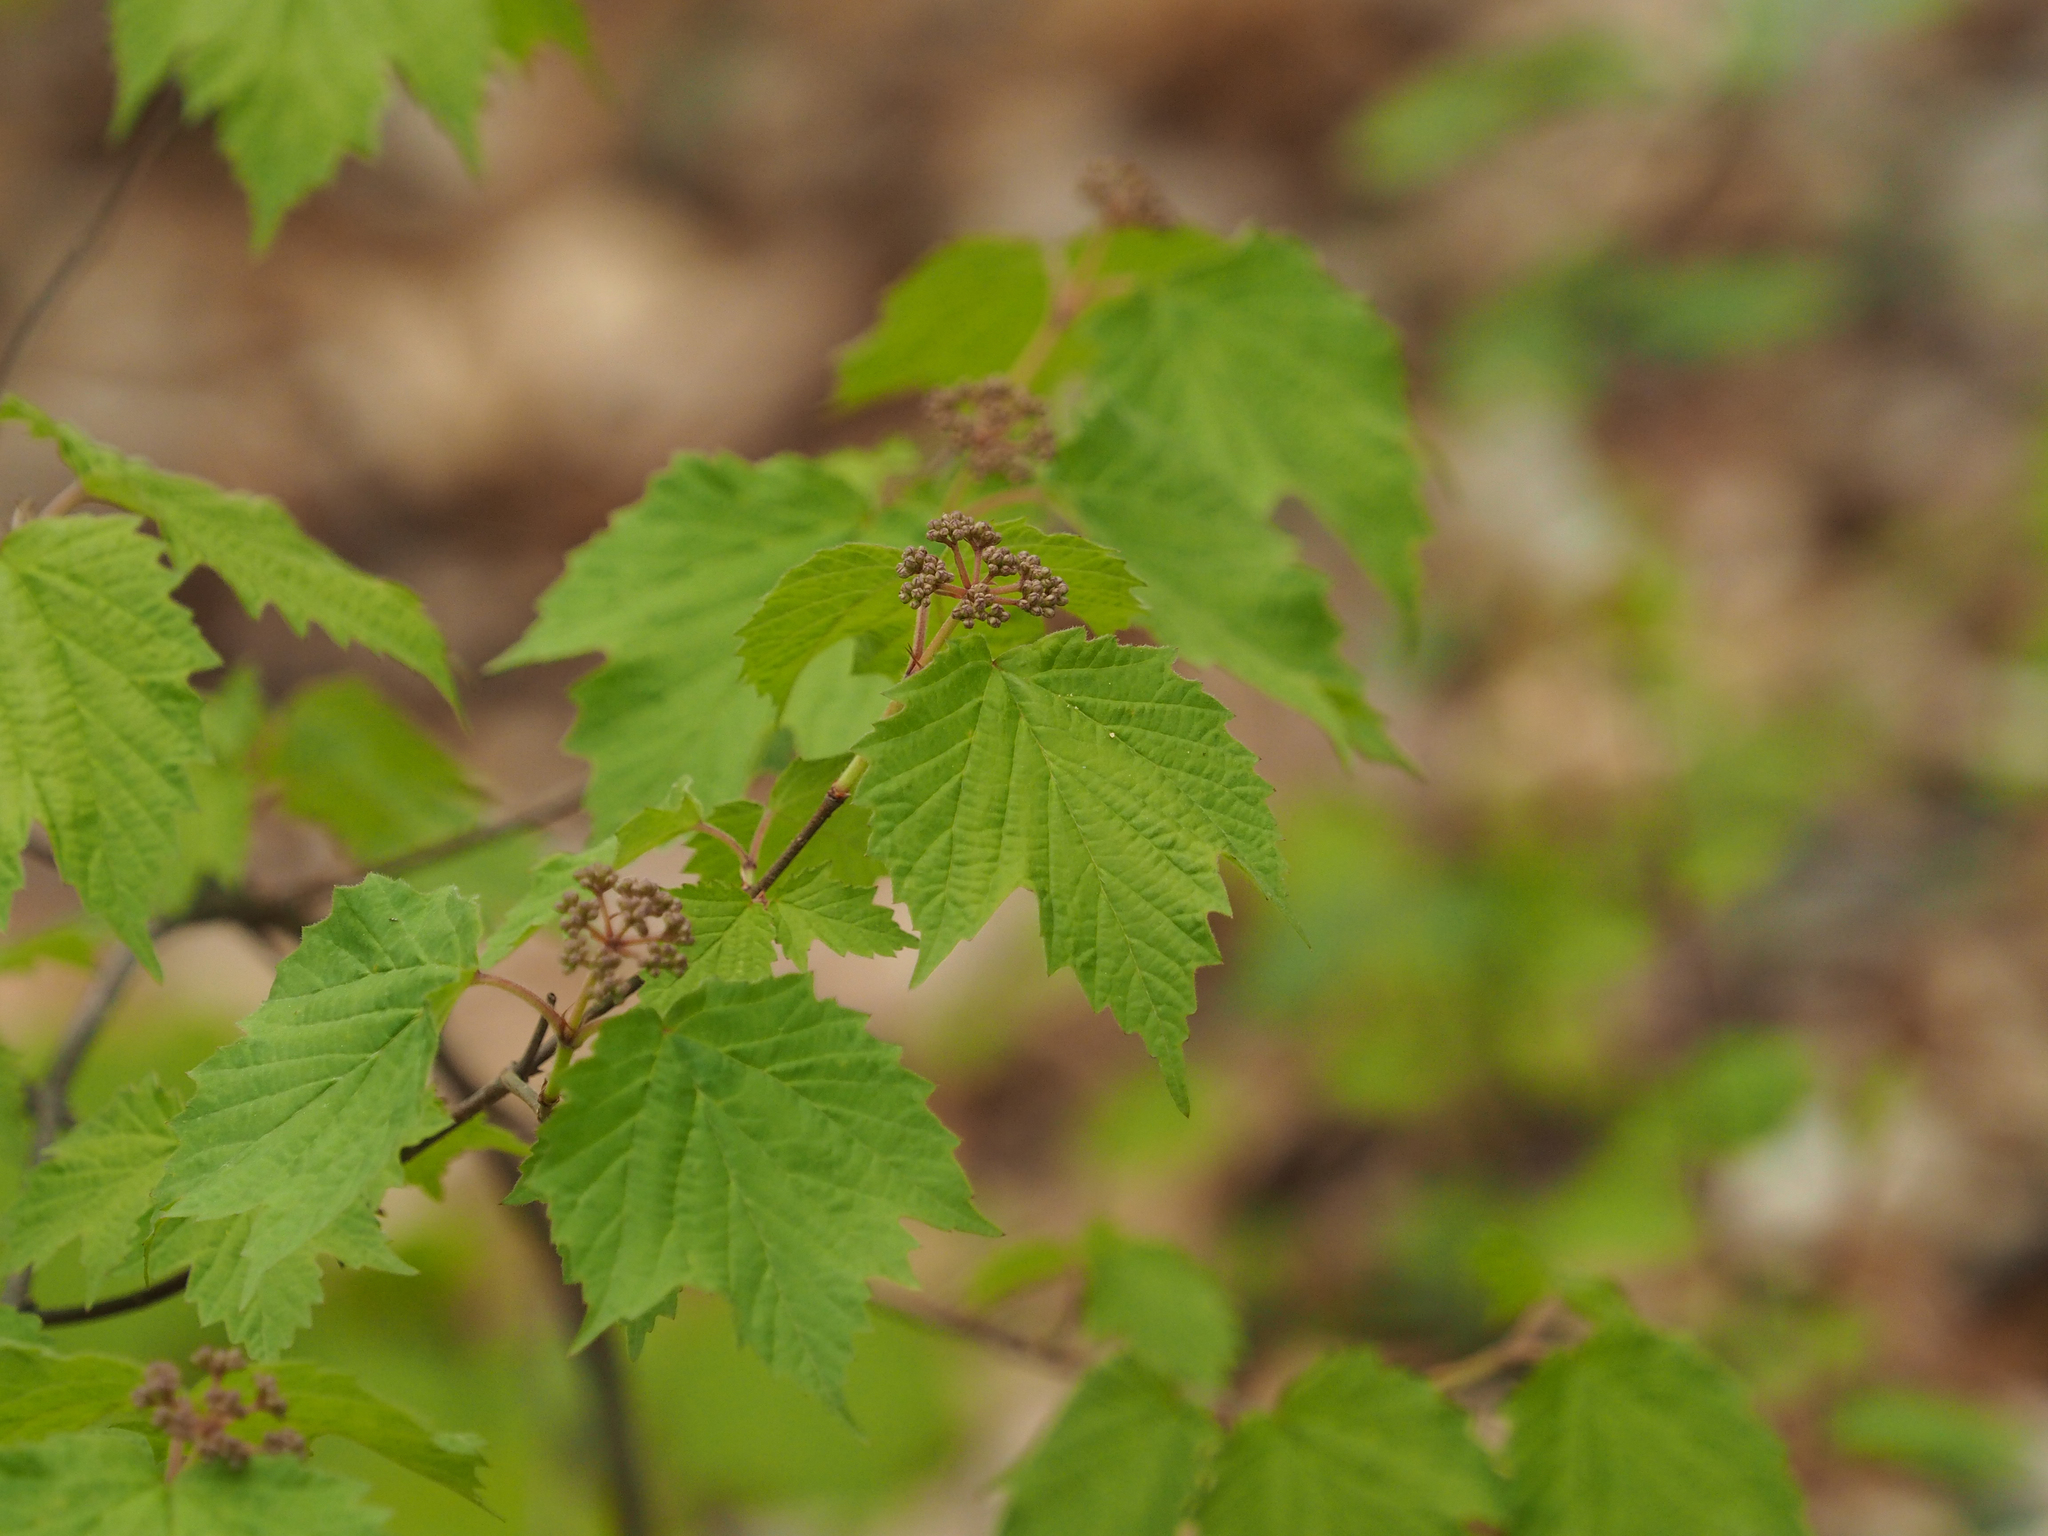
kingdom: Plantae
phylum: Tracheophyta
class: Magnoliopsida
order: Dipsacales
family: Viburnaceae
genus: Viburnum
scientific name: Viburnum acerifolium
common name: Dockmackie
